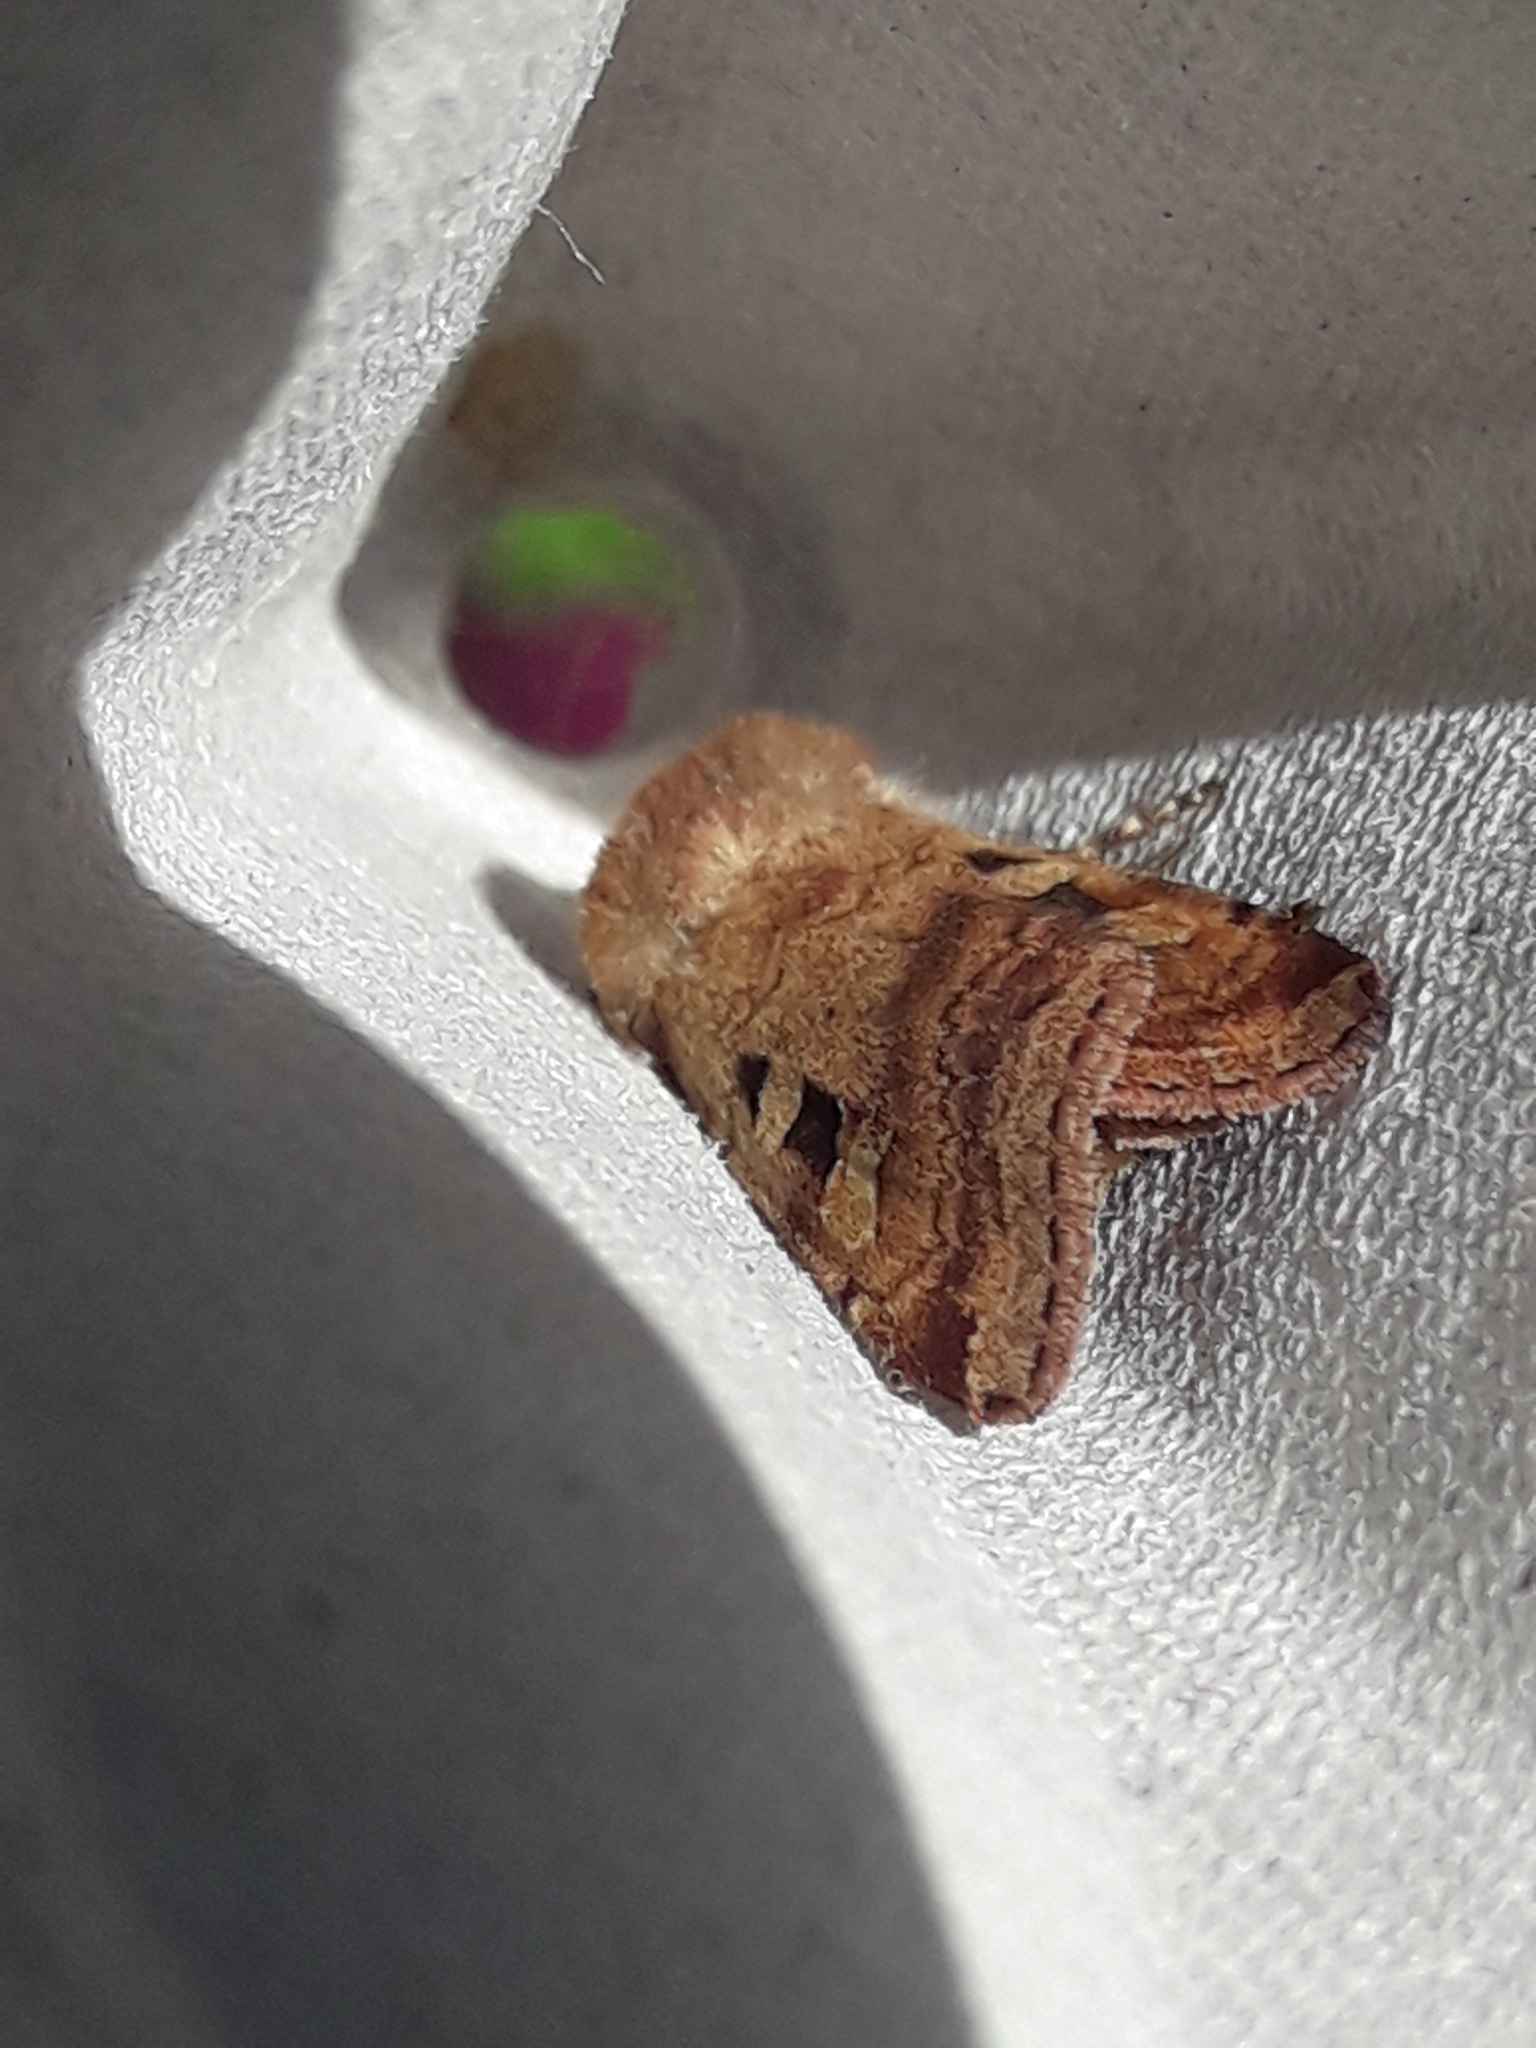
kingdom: Animalia
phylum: Arthropoda
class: Insecta
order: Lepidoptera
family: Noctuidae
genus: Diarsia
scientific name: Diarsia mendica
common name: Ingrailed clay
